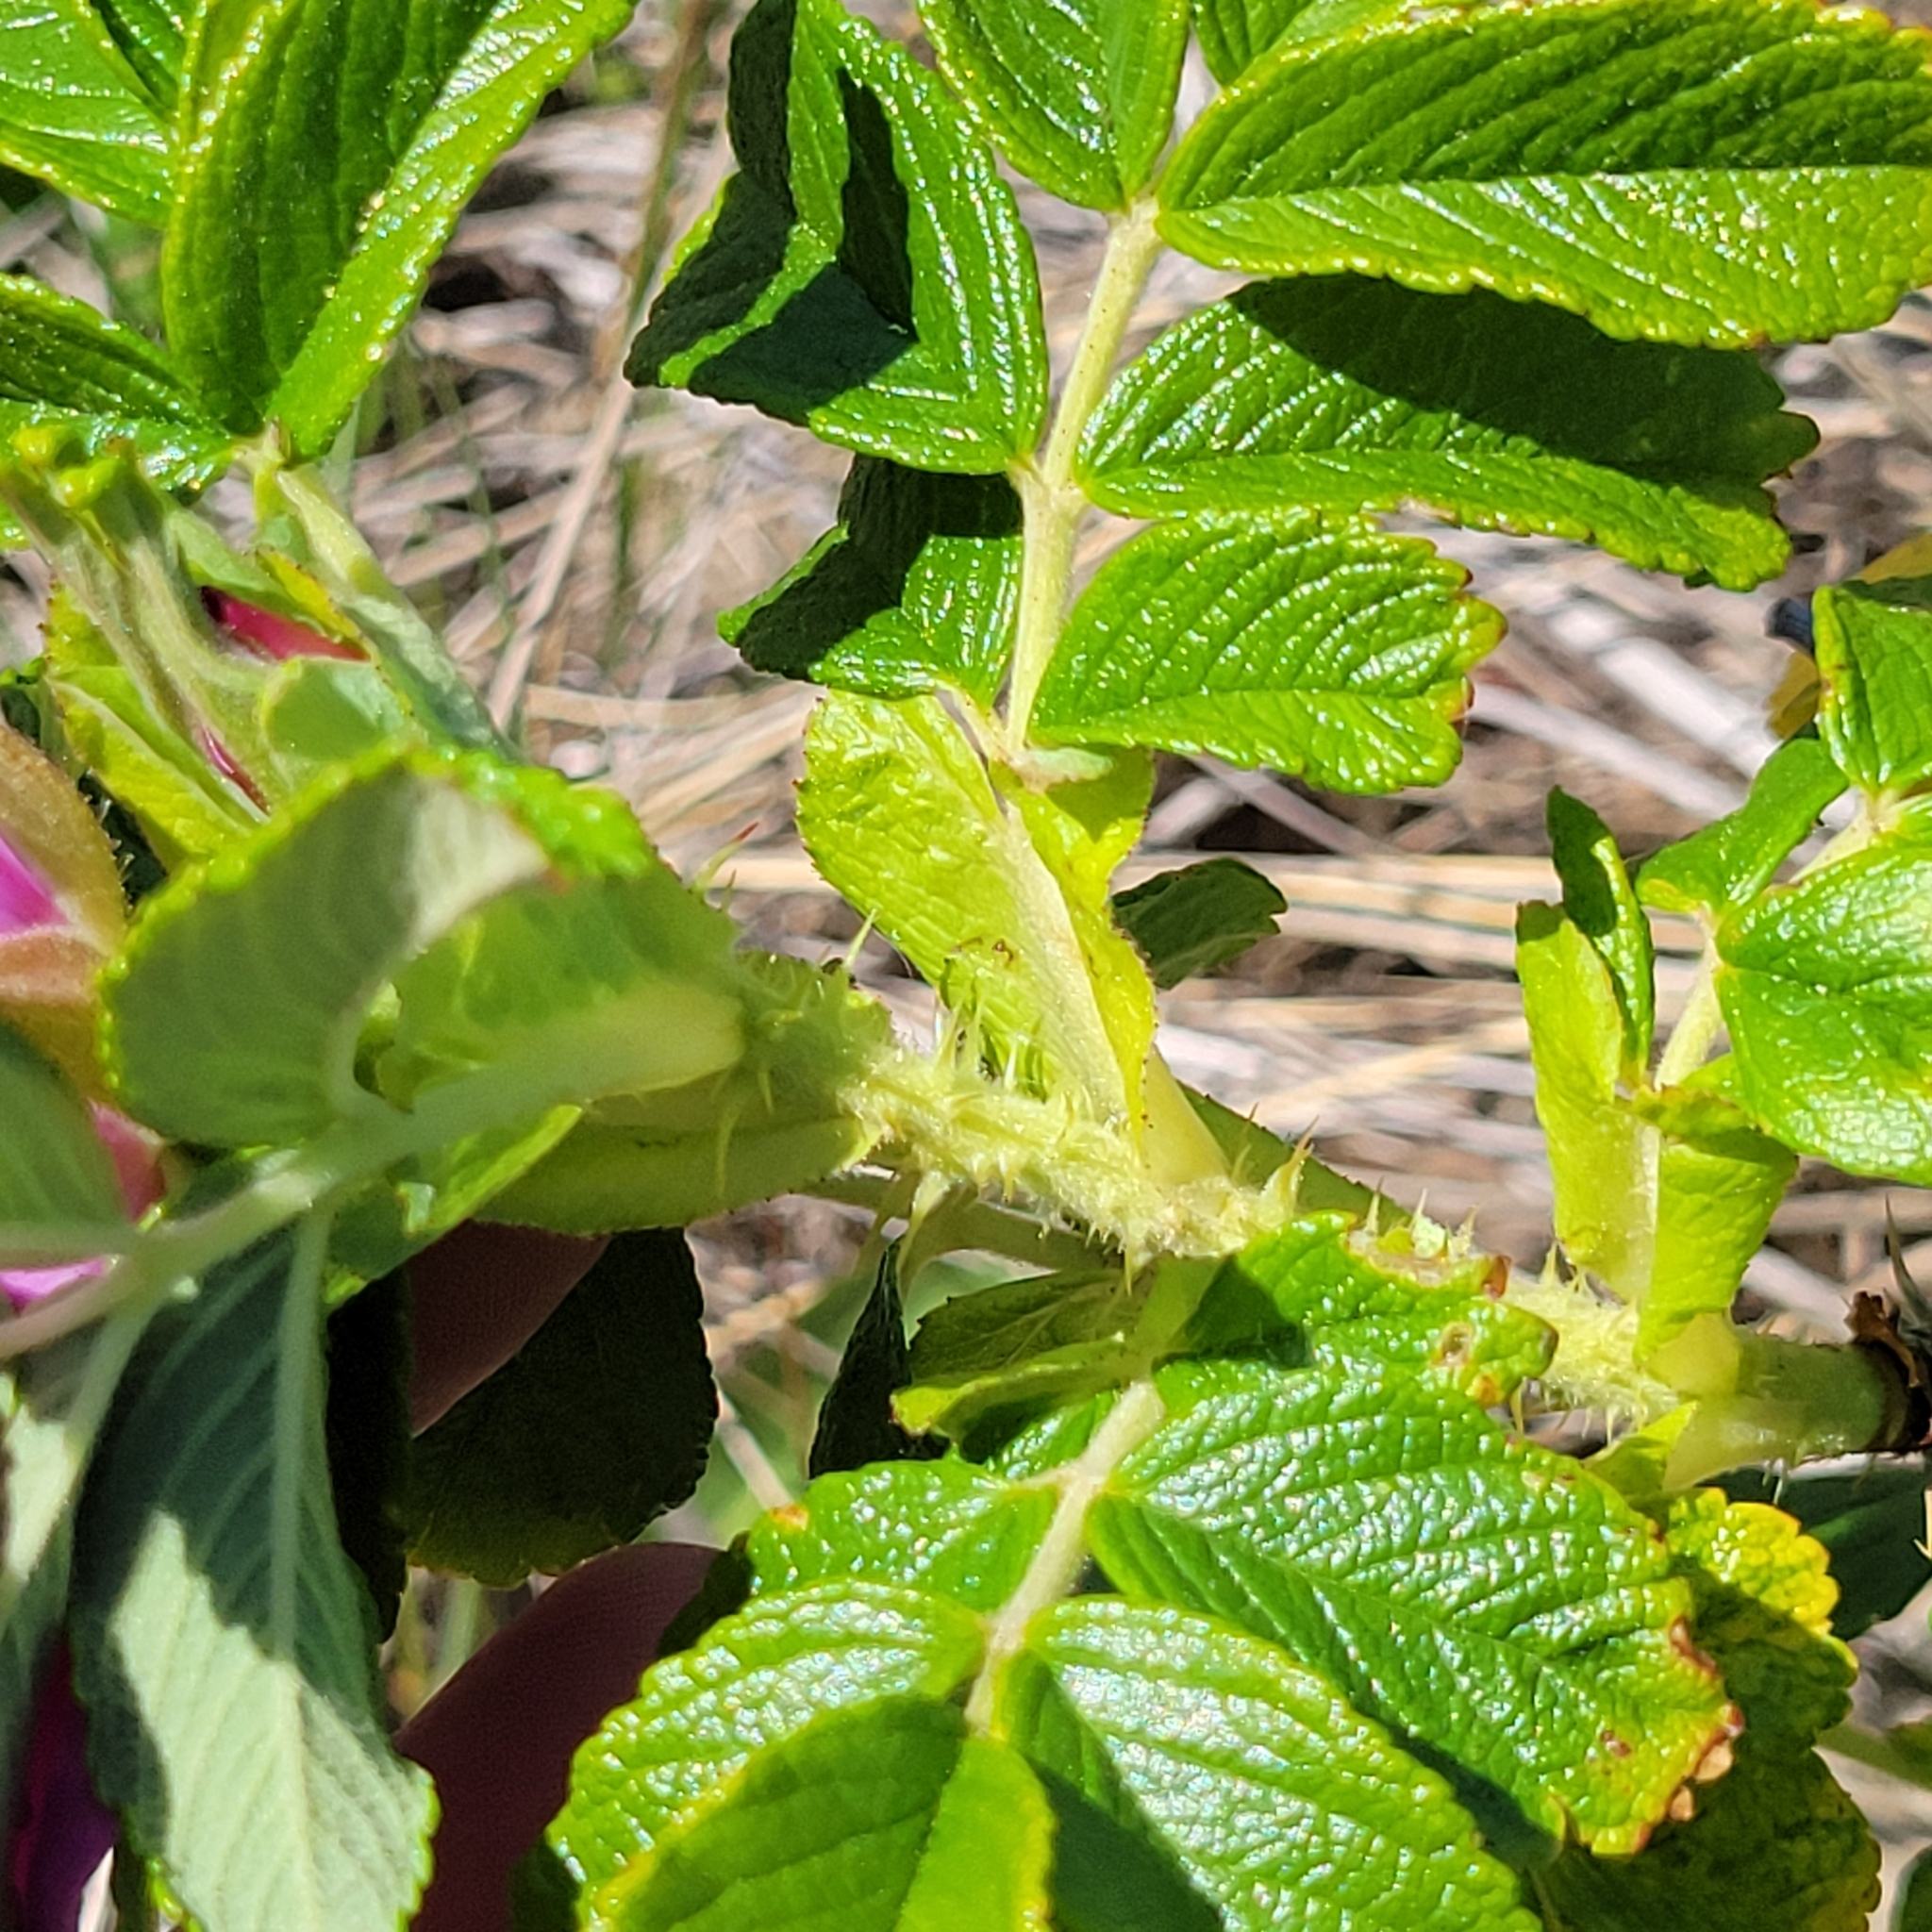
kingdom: Plantae
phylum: Tracheophyta
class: Magnoliopsida
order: Rosales
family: Rosaceae
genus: Rosa
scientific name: Rosa rugosa
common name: Japanese rose
